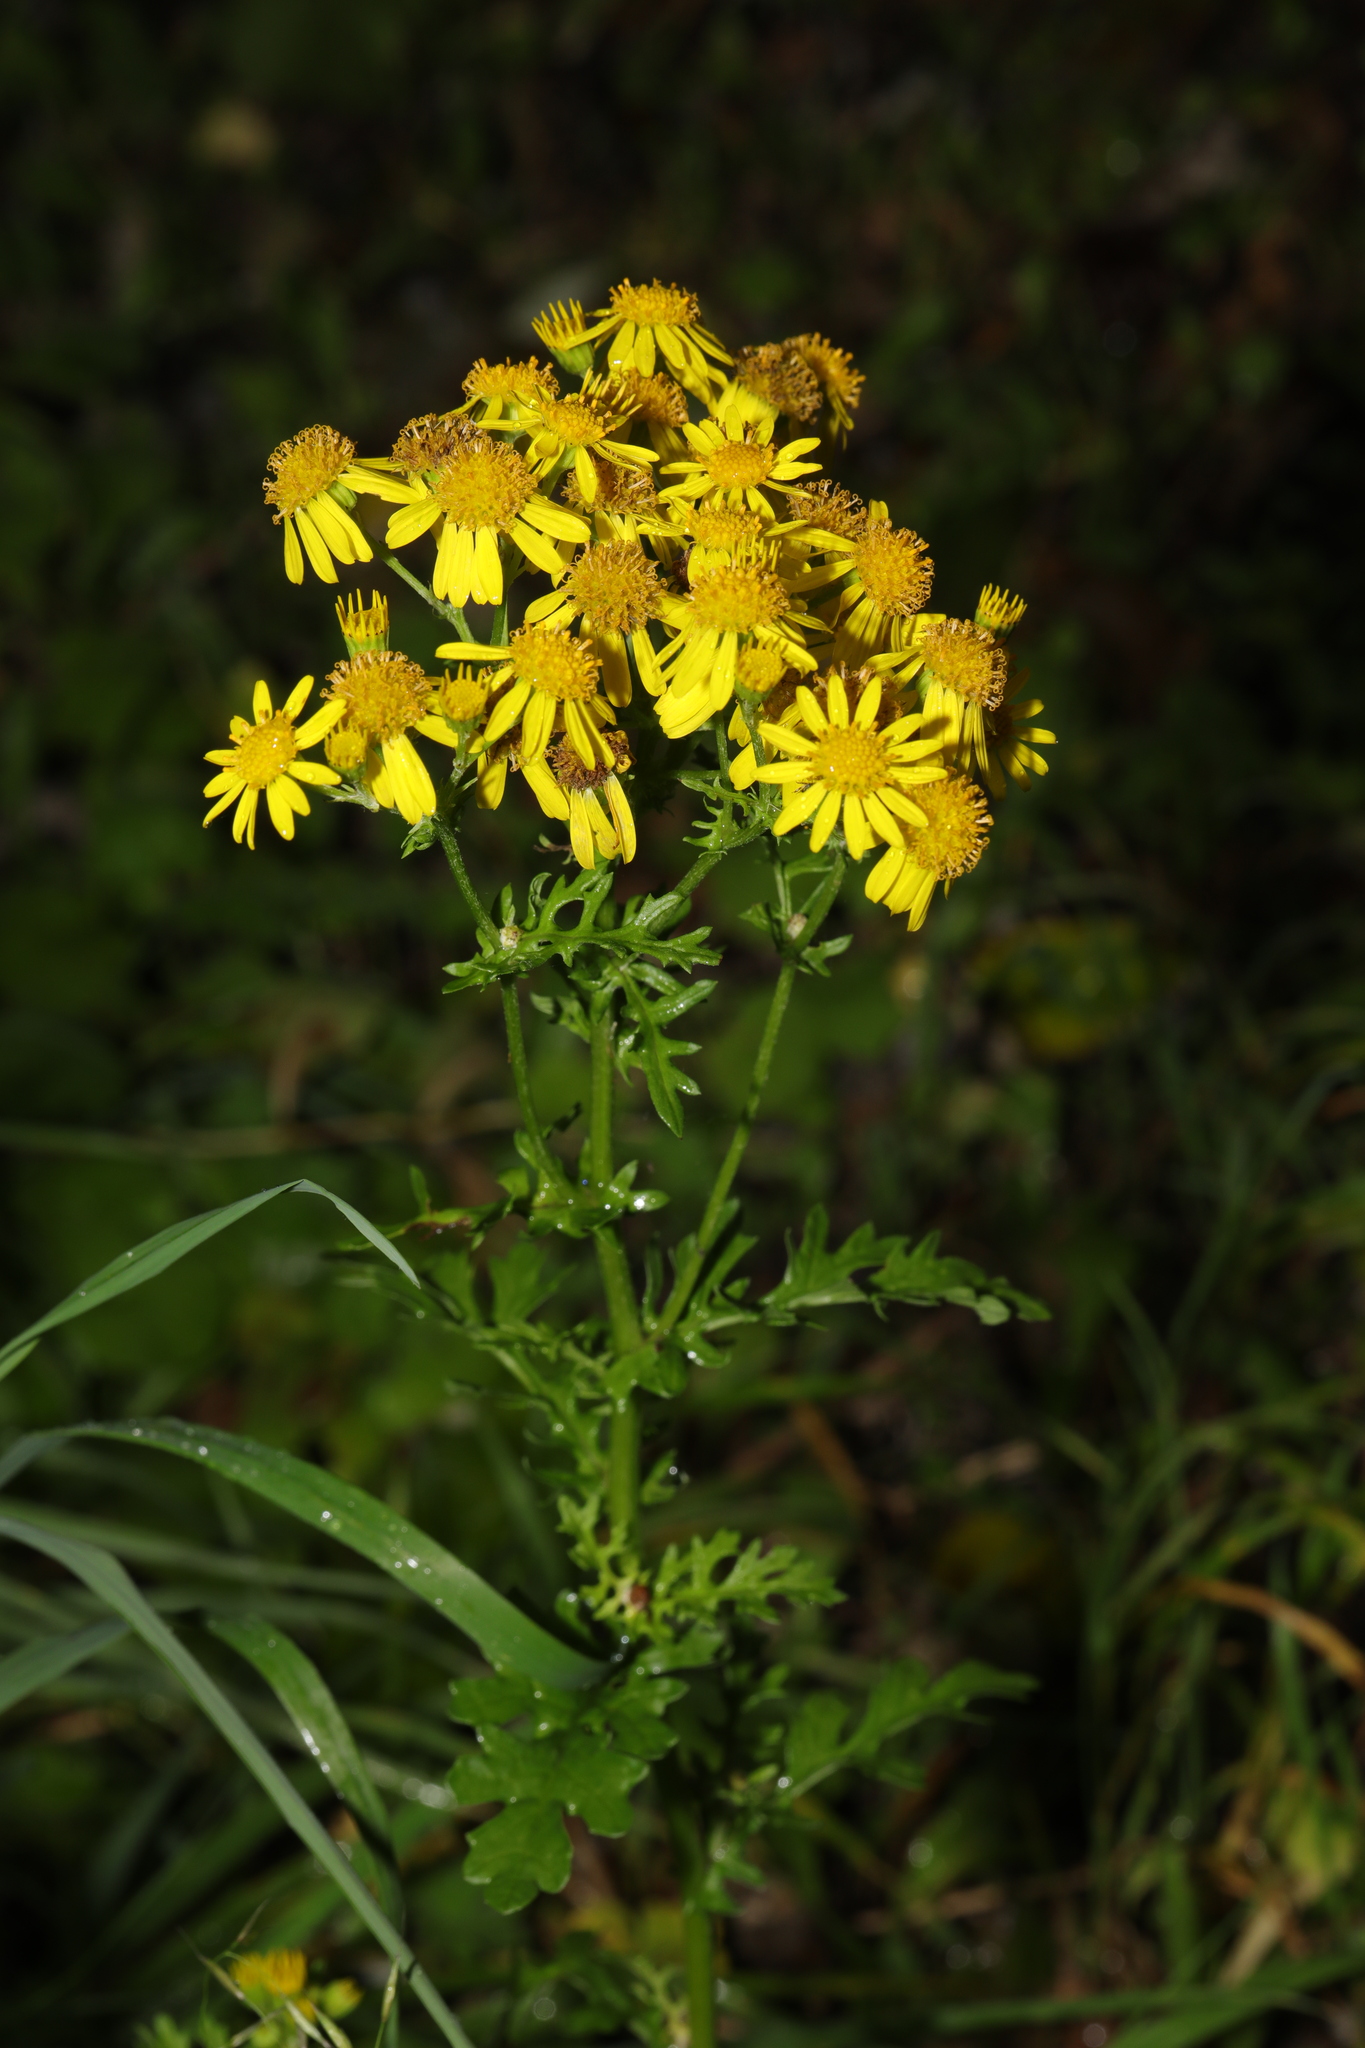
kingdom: Plantae
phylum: Tracheophyta
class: Magnoliopsida
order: Asterales
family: Asteraceae
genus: Jacobaea
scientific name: Jacobaea vulgaris
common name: Stinking willie
